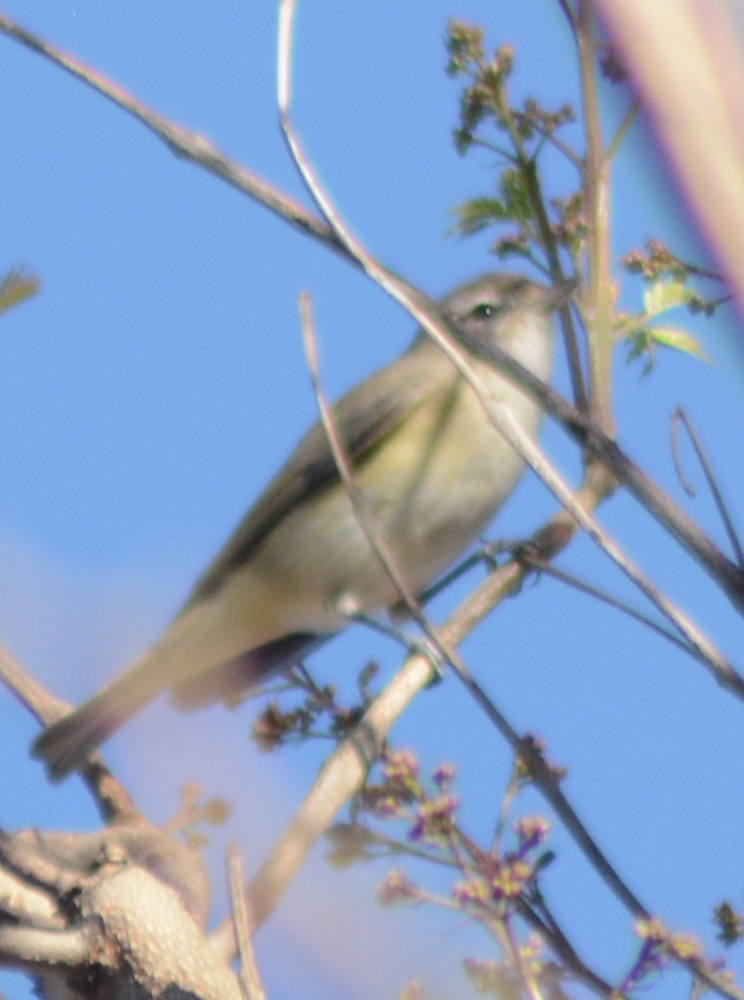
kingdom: Animalia
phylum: Chordata
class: Aves
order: Passeriformes
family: Vireonidae
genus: Vireo
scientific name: Vireo gilvus
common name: Warbling vireo
